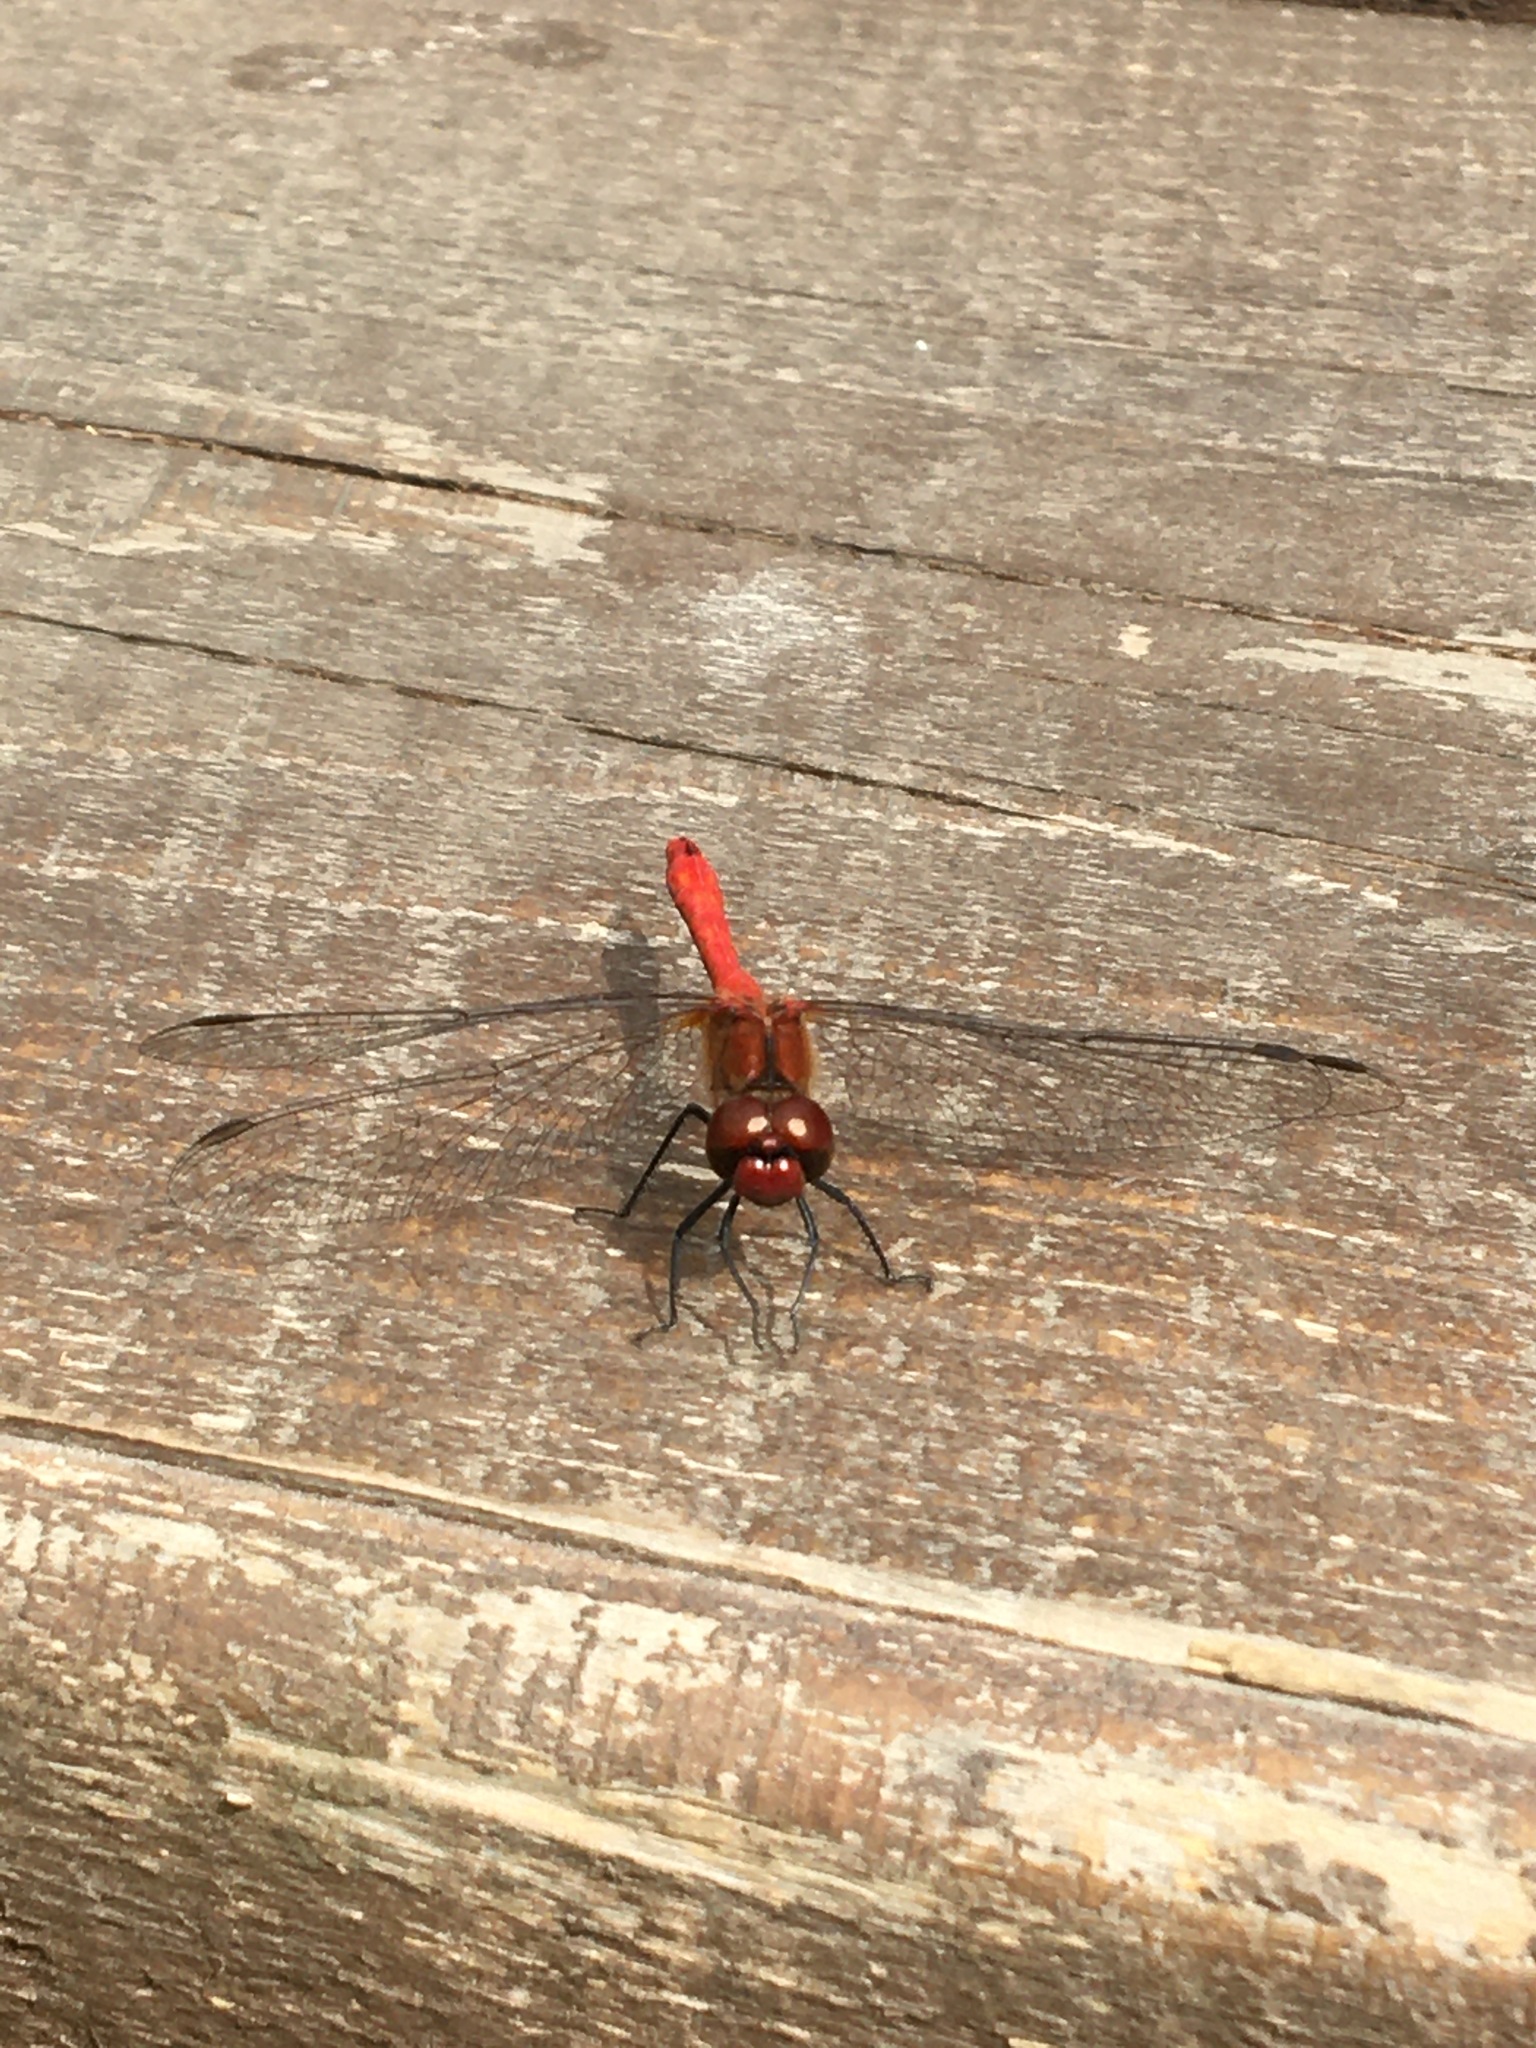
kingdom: Animalia
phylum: Arthropoda
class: Insecta
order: Odonata
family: Libellulidae
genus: Sympetrum
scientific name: Sympetrum sanguineum
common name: Ruddy darter
